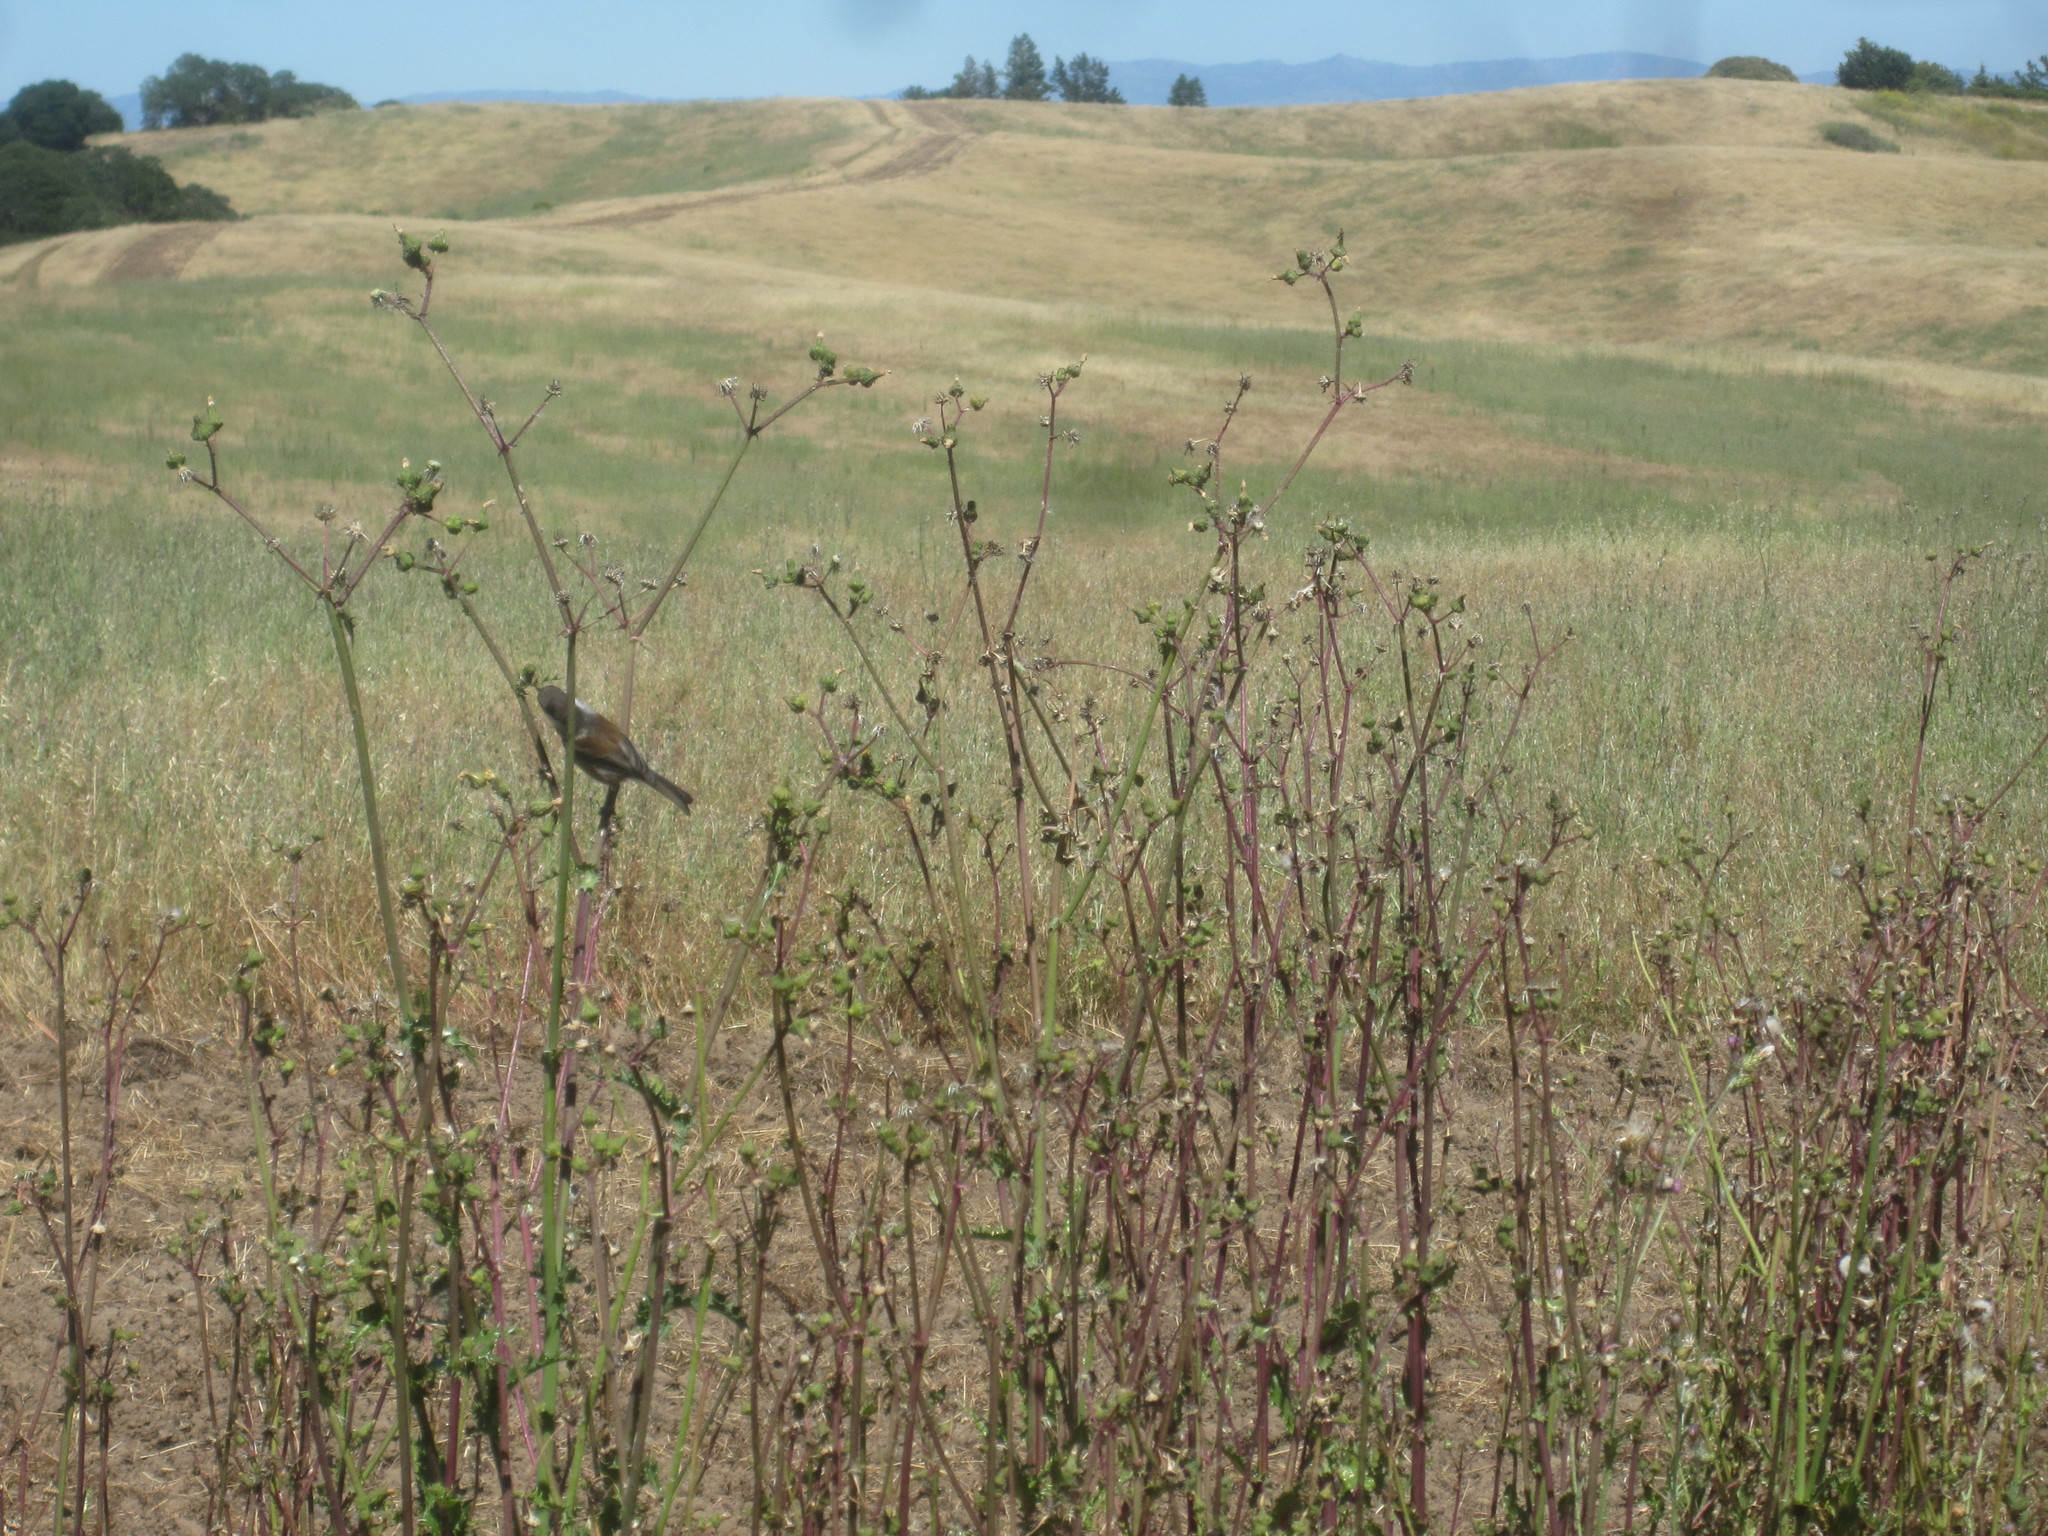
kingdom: Animalia
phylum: Chordata
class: Aves
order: Passeriformes
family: Paridae
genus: Poecile
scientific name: Poecile rufescens
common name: Chestnut-backed chickadee
